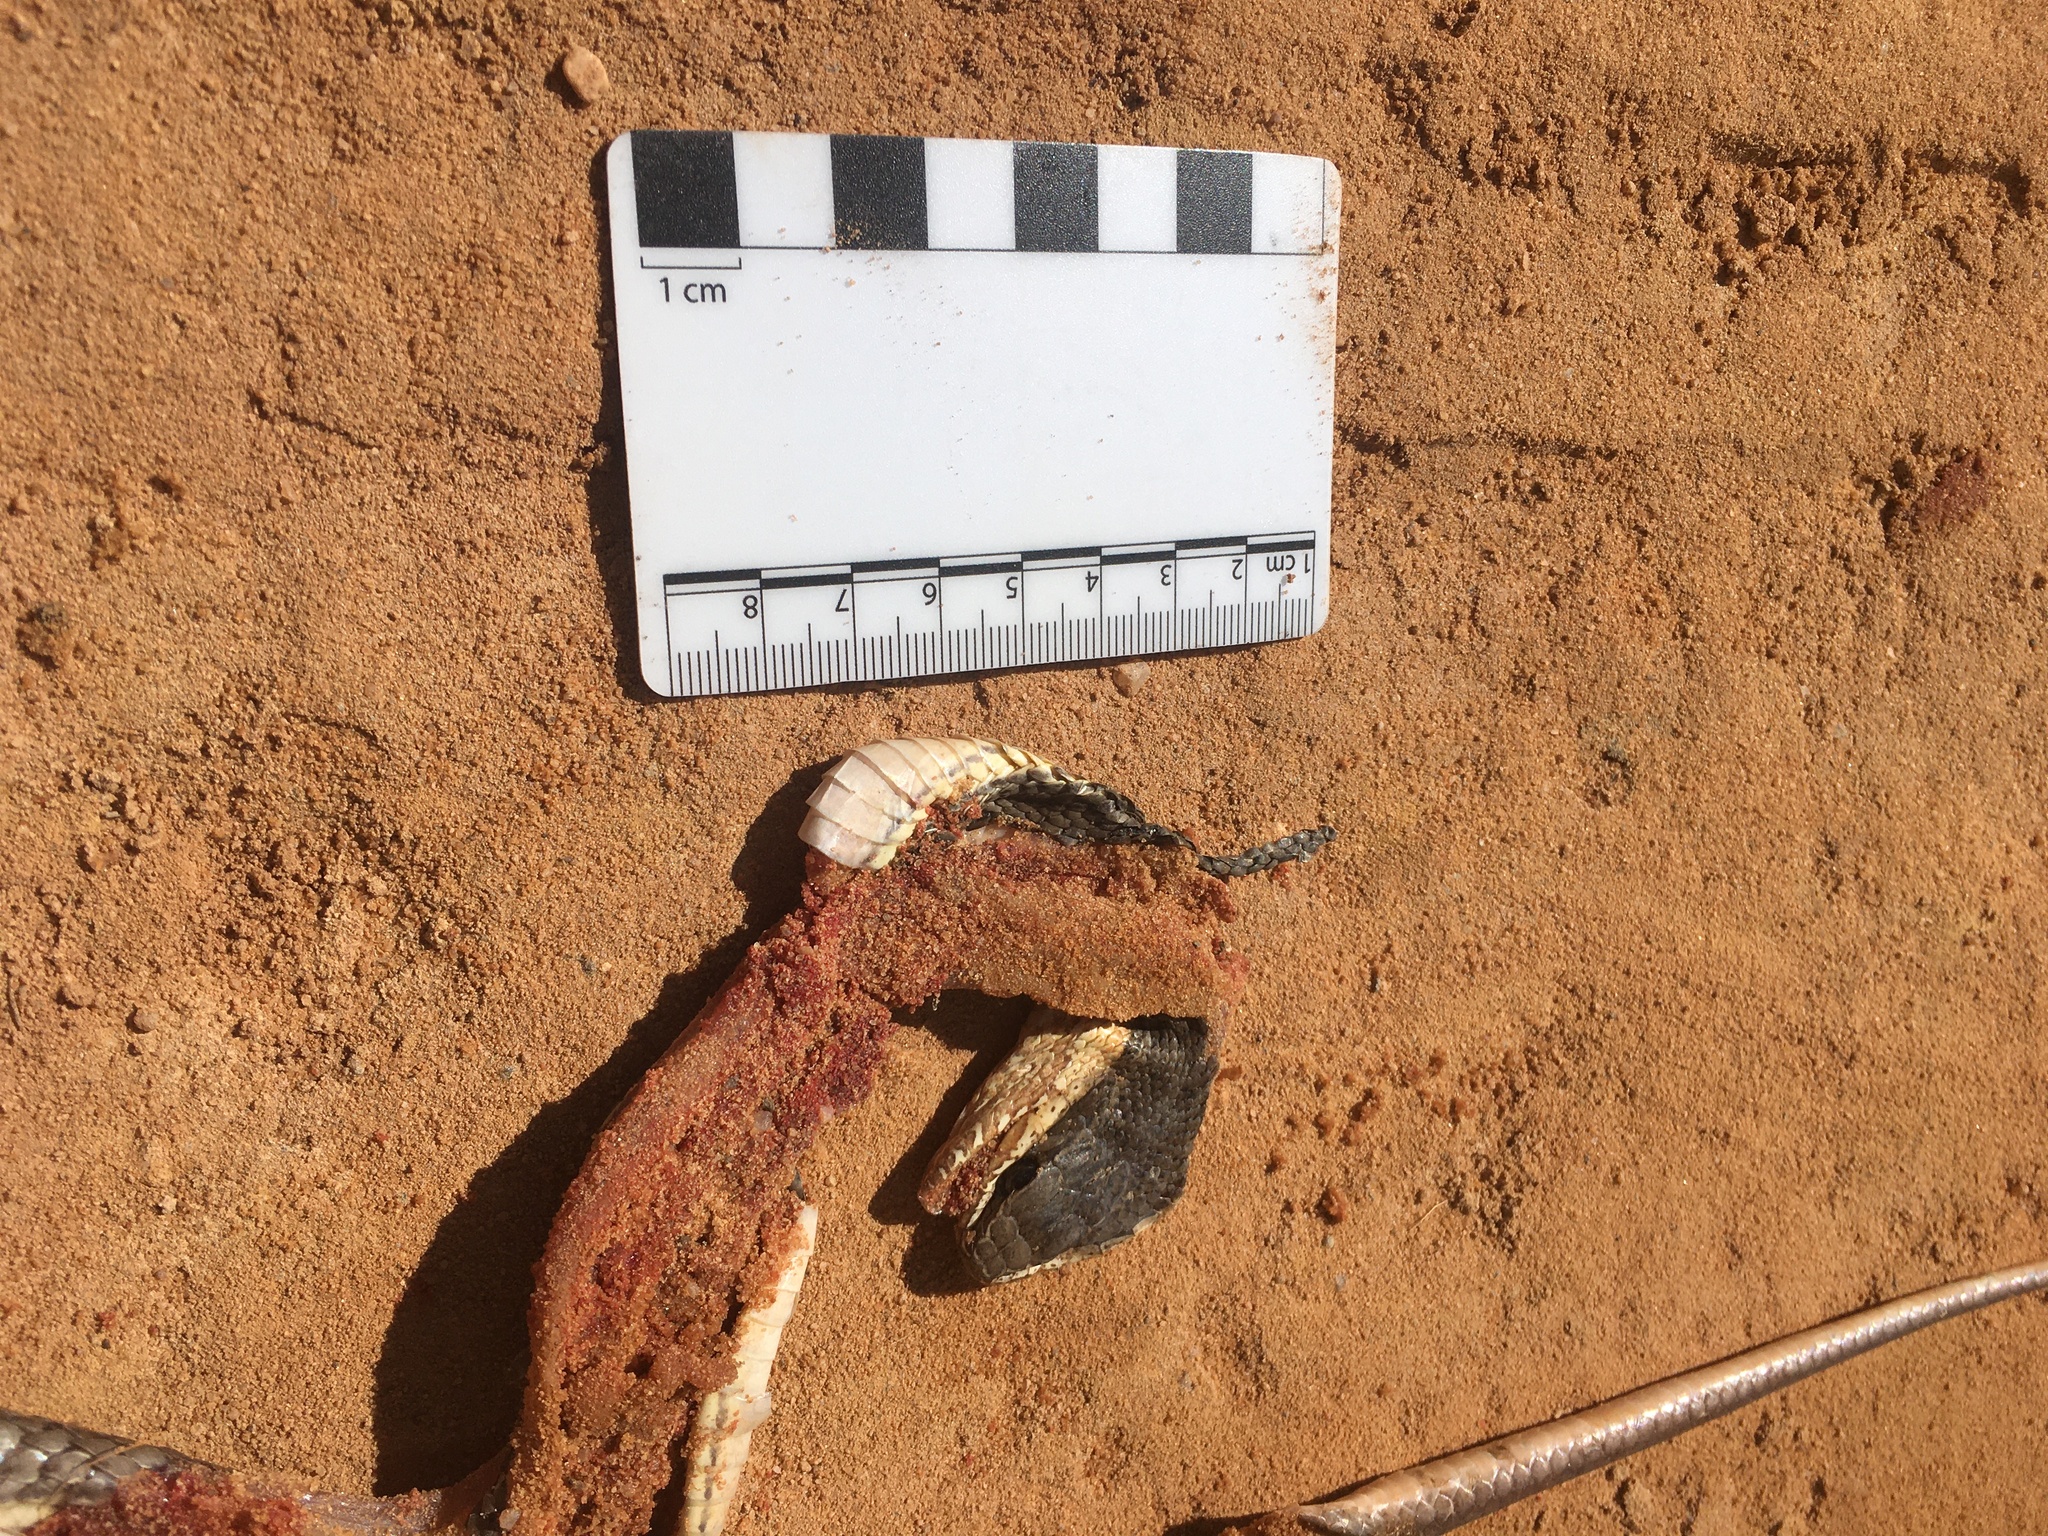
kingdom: Animalia
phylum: Chordata
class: Squamata
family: Colubridae
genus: Philodryas
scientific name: Philodryas nattereri
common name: Paraguay green racer
